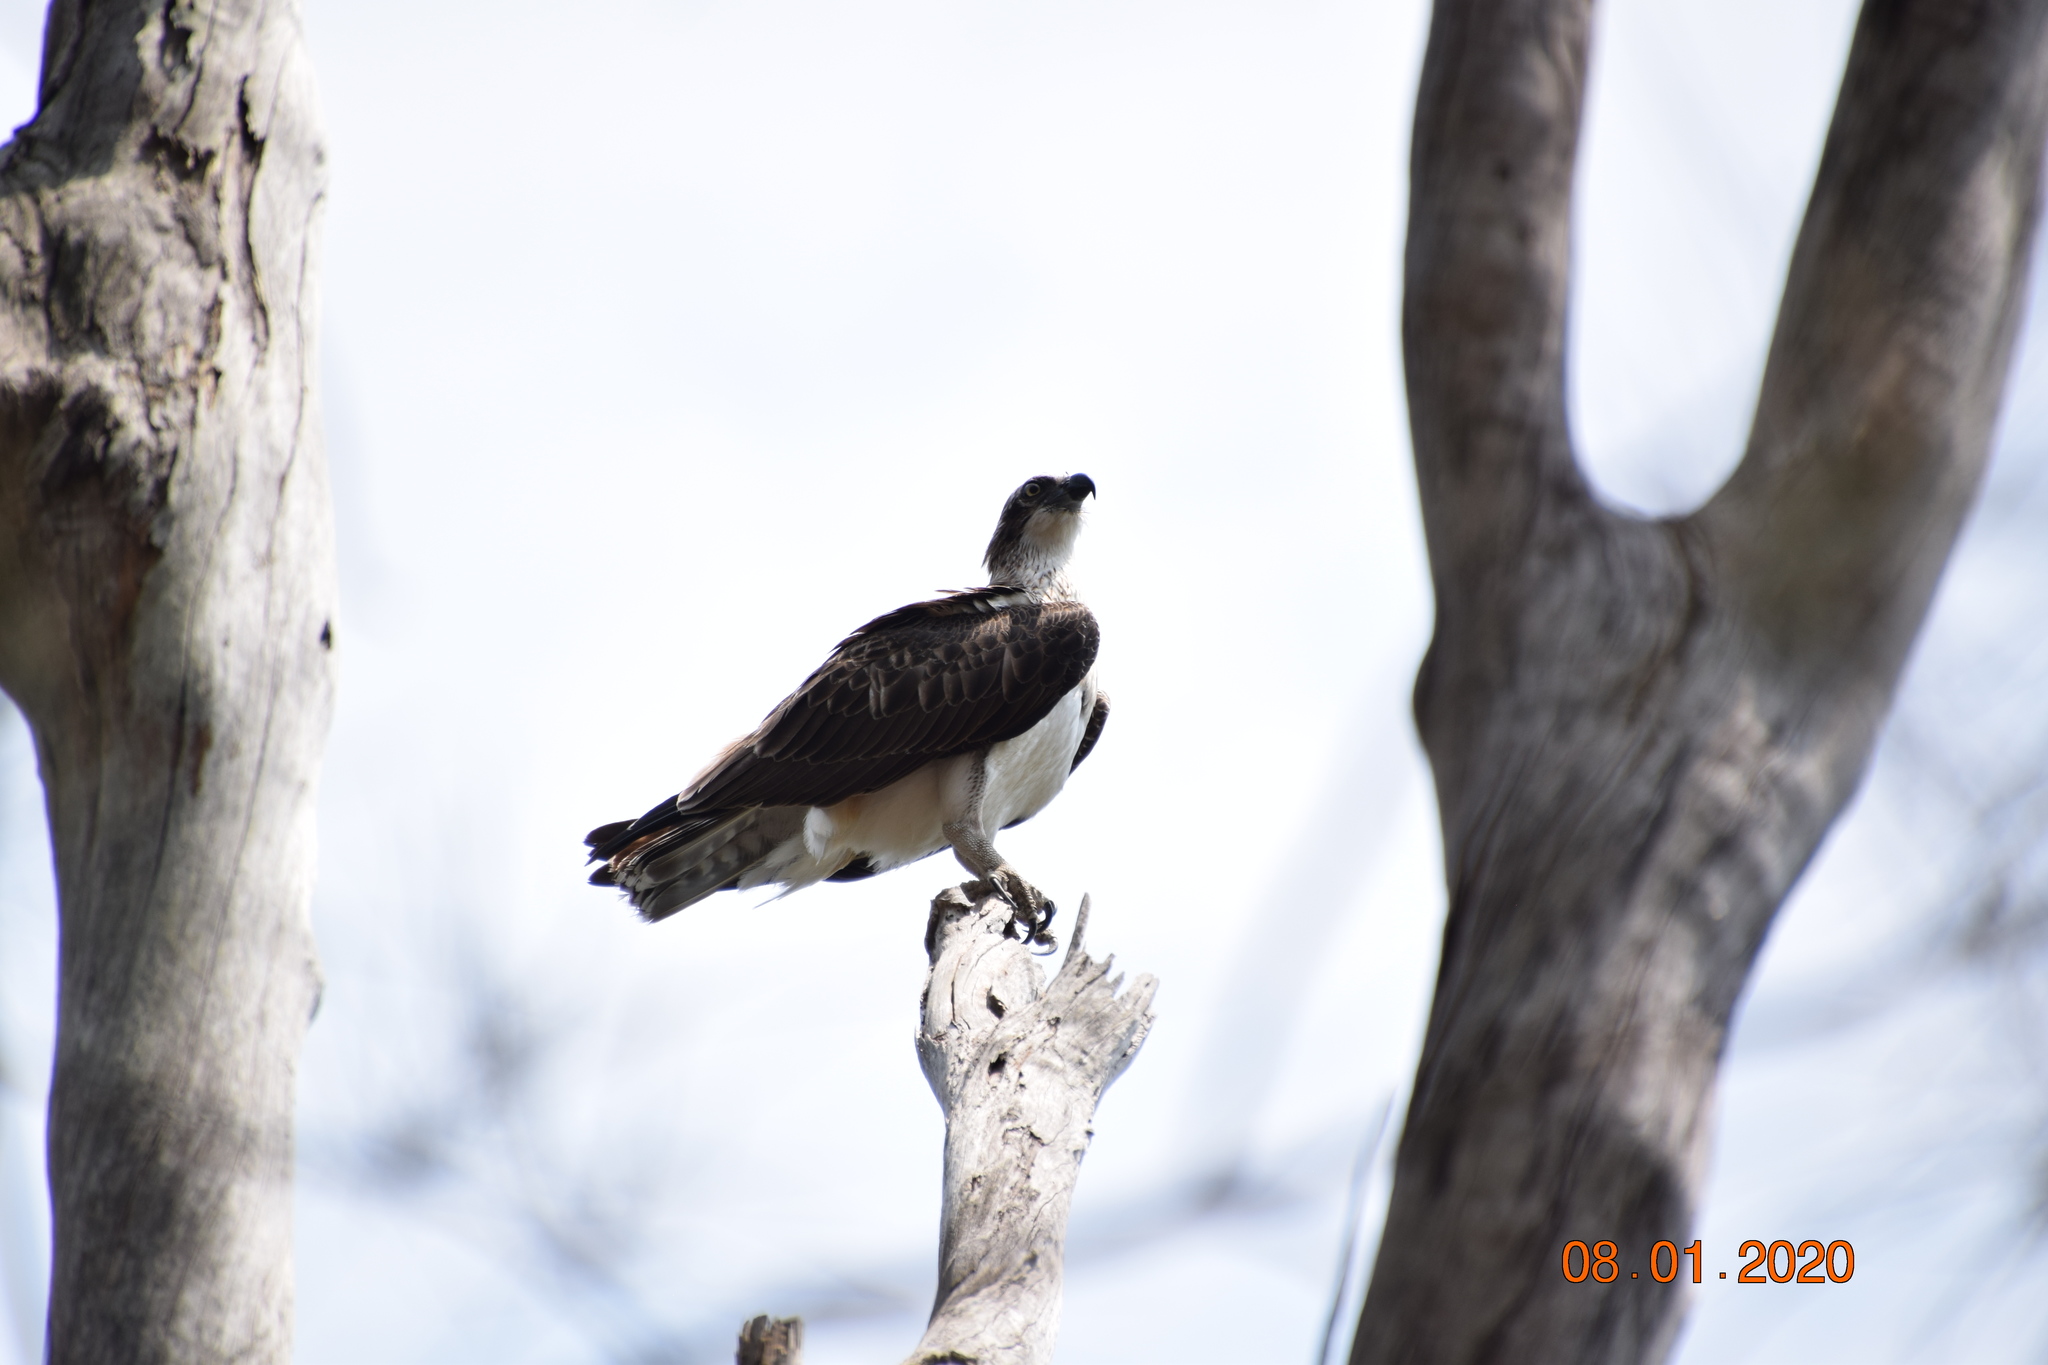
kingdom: Animalia
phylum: Chordata
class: Aves
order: Accipitriformes
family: Pandionidae
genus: Pandion
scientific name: Pandion cristatus
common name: Eastern osprey
